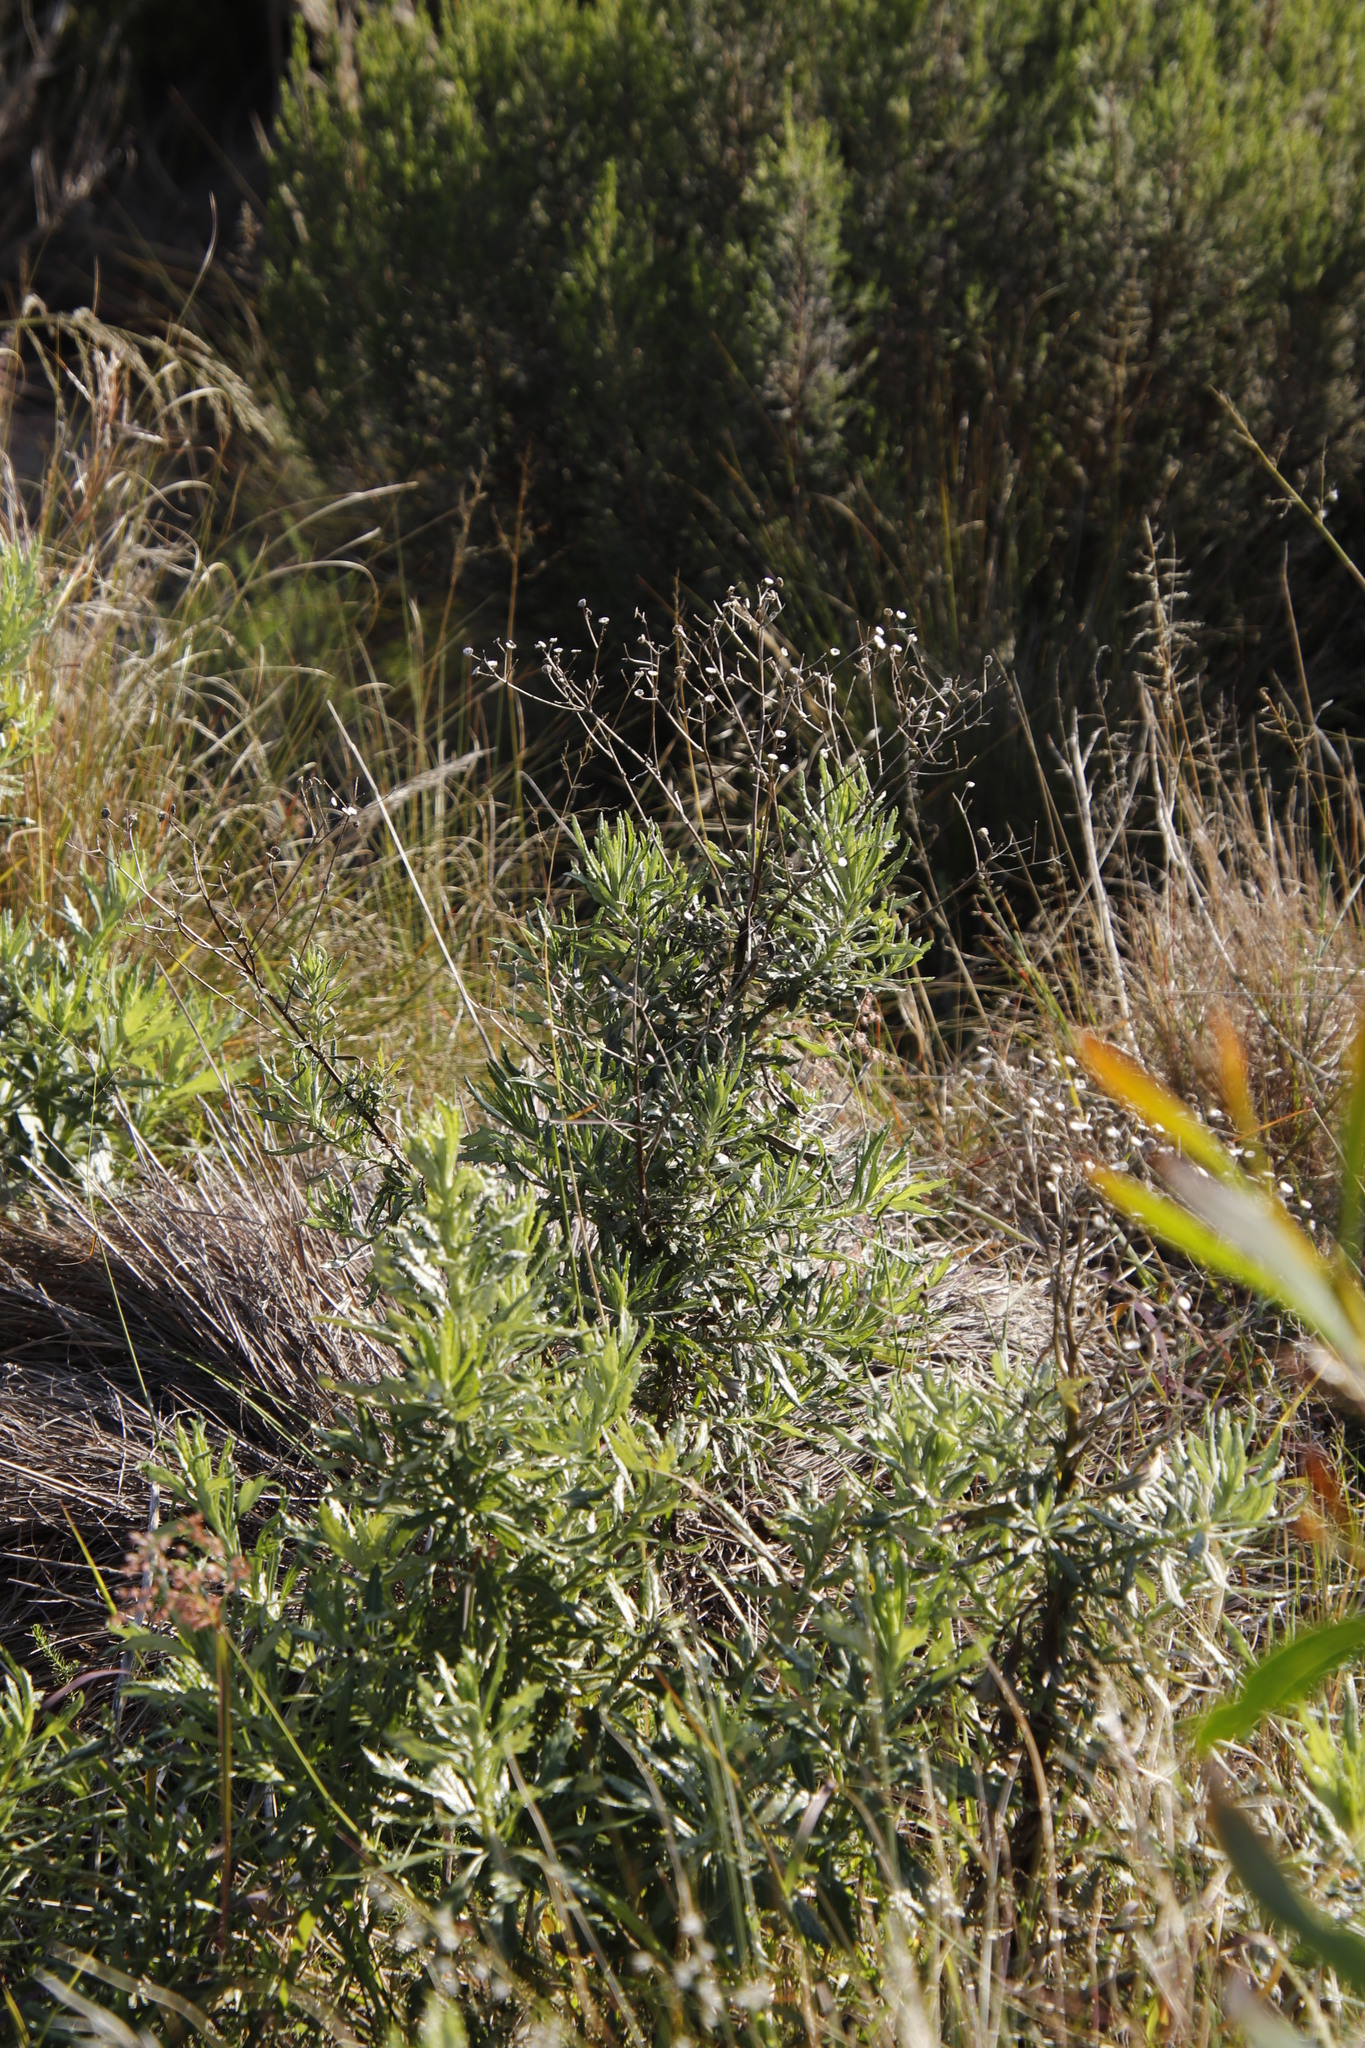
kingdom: Plantae
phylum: Tracheophyta
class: Magnoliopsida
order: Asterales
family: Asteraceae
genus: Senecio
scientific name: Senecio pterophorus
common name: Shoddy ragwort
